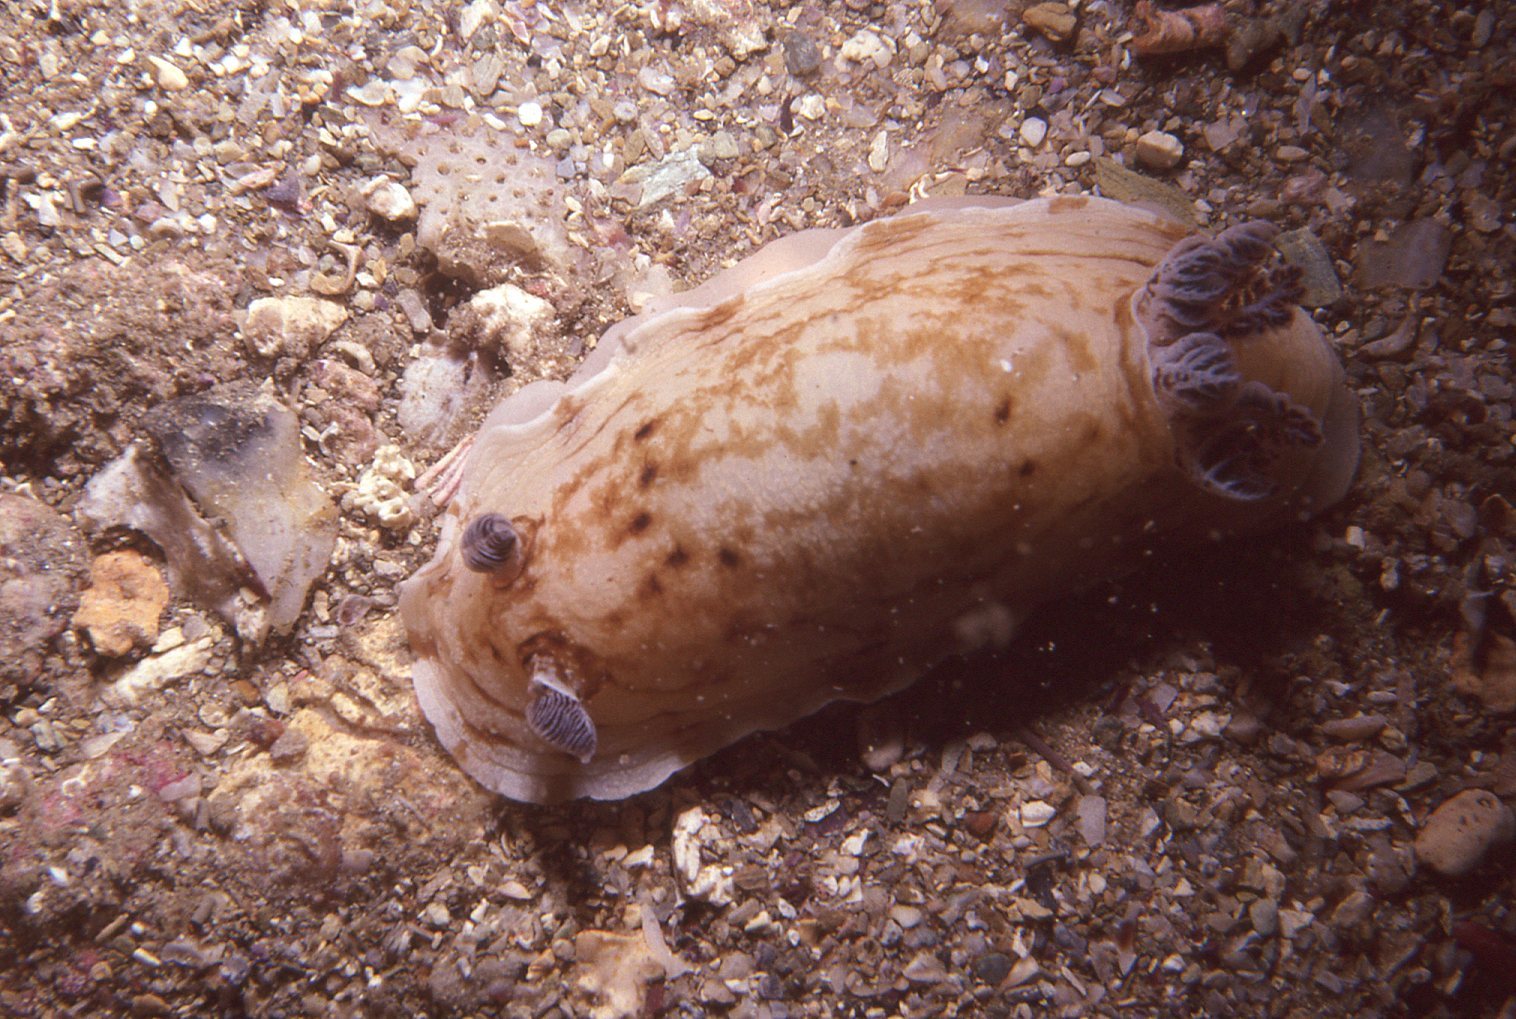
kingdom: Animalia
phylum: Mollusca
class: Gastropoda
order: Nudibranchia
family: Dorididae
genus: Aphelodoris
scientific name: Aphelodoris varia
